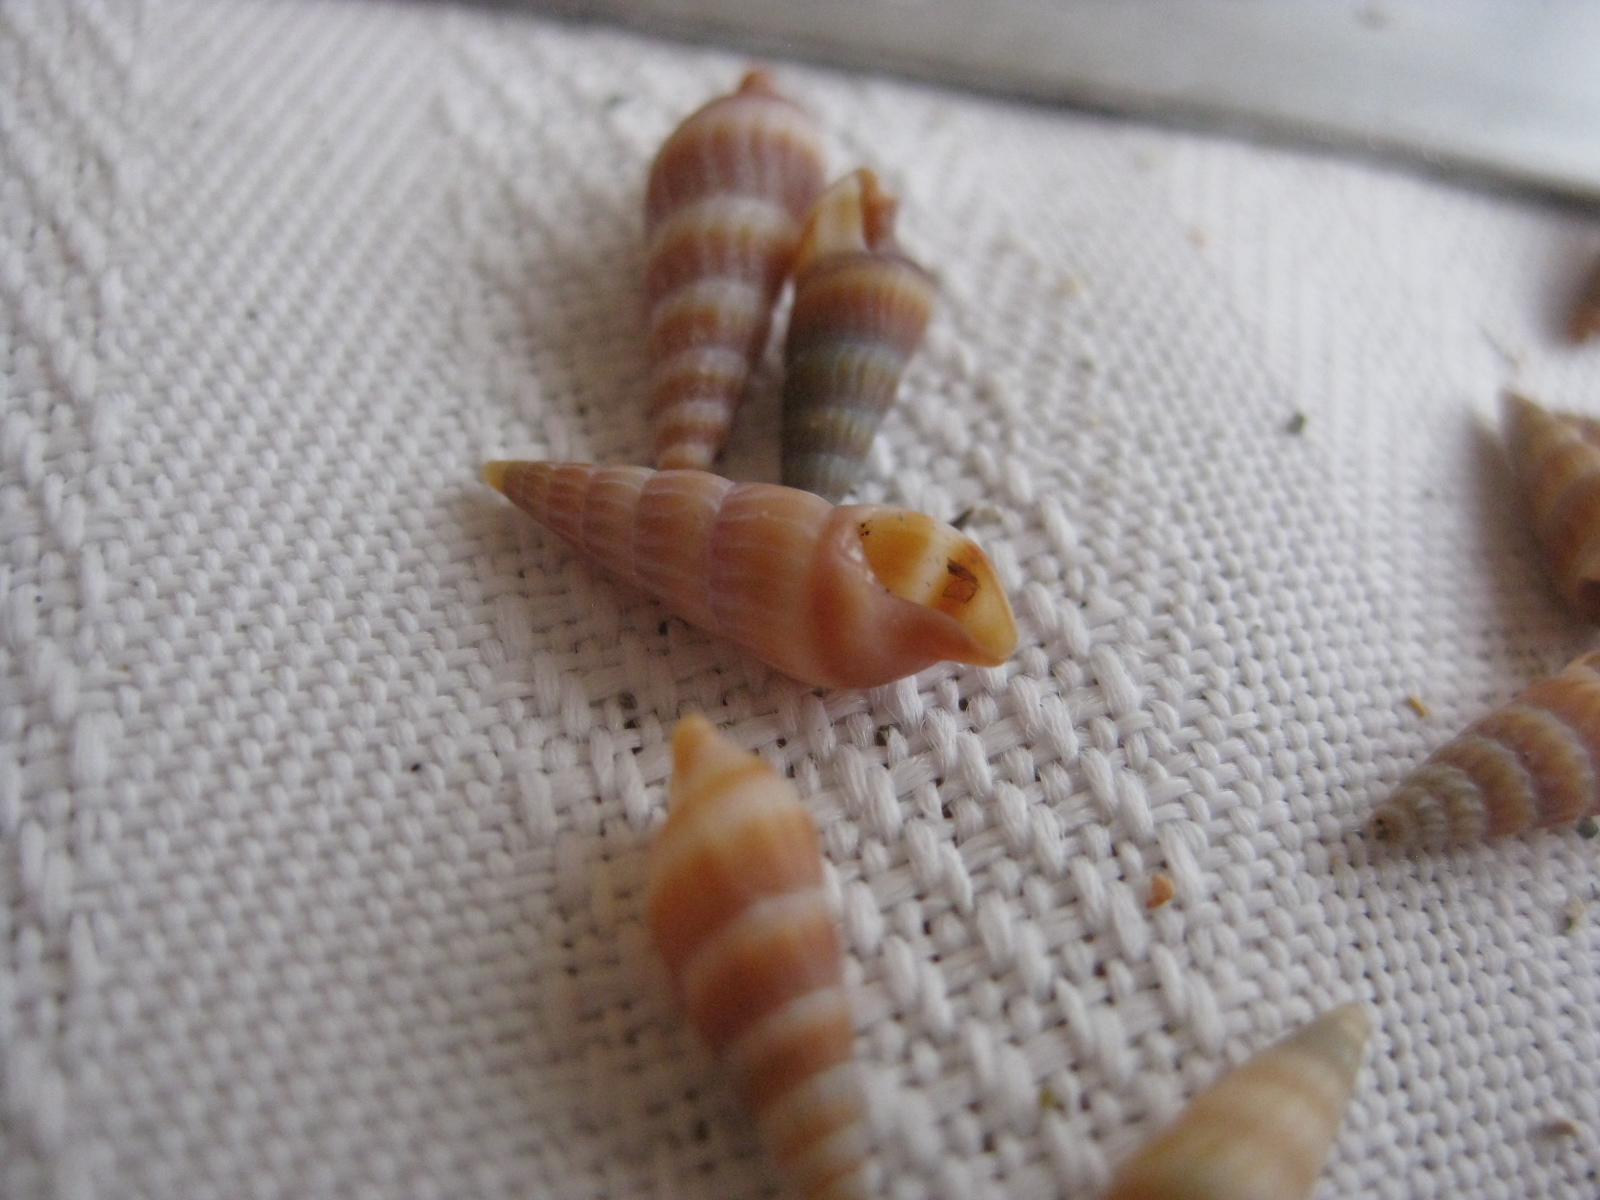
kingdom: Animalia
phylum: Mollusca
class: Gastropoda
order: Neogastropoda
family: Terebridae
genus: Duplicaria
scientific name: Duplicaria tristis
